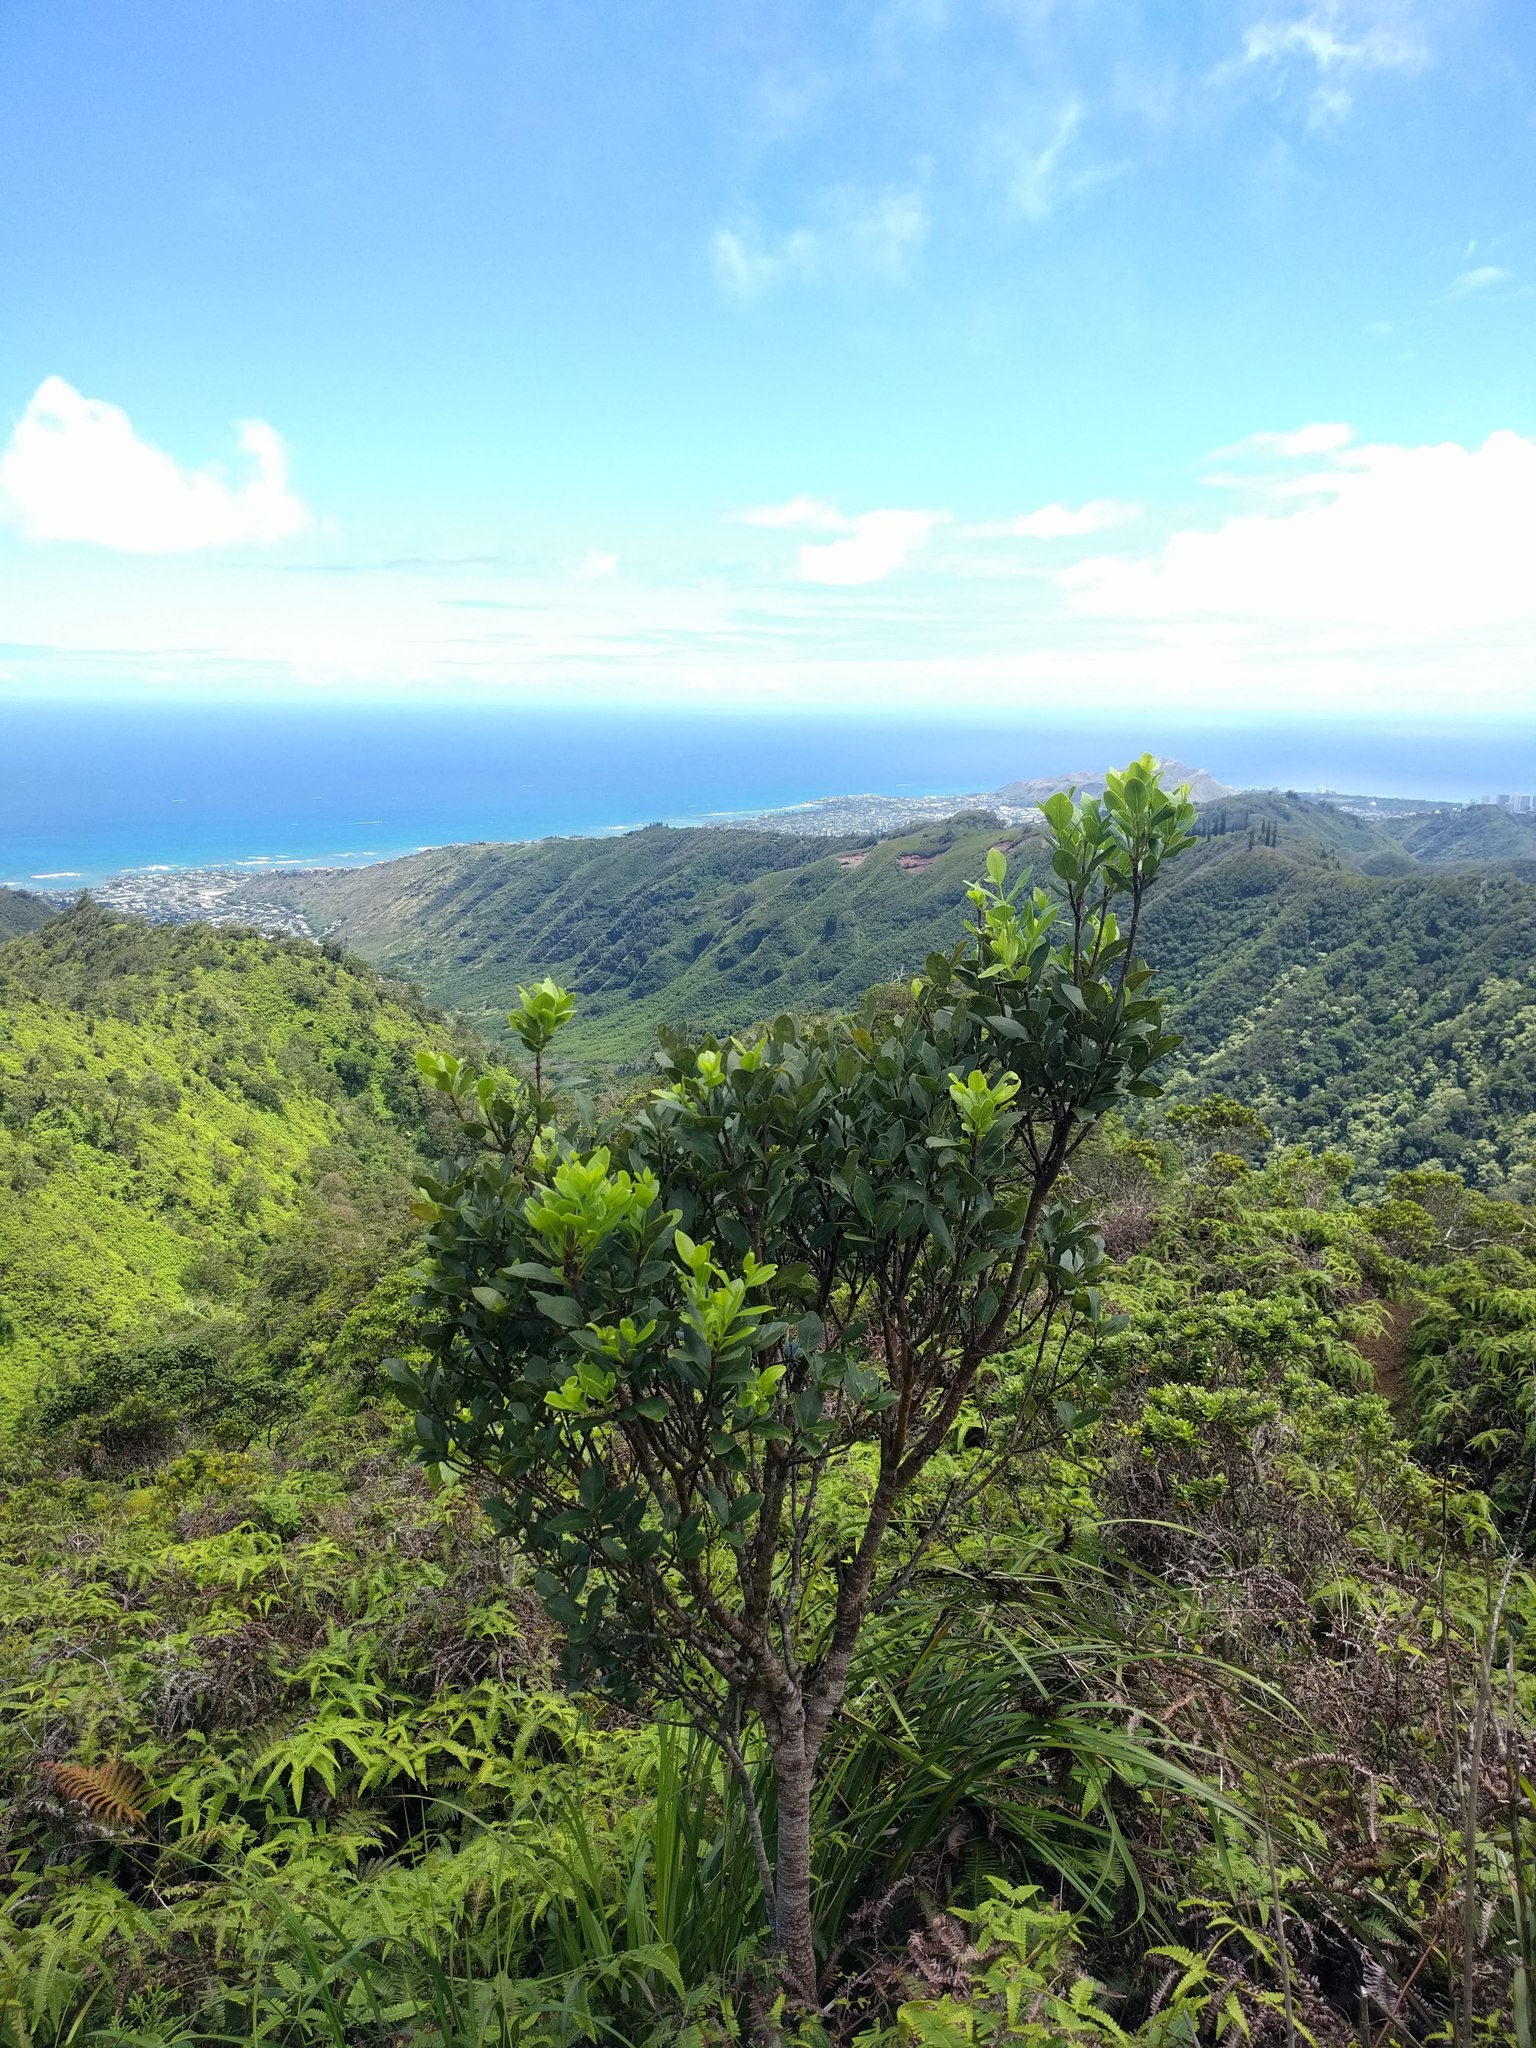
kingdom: Plantae
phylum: Tracheophyta
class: Magnoliopsida
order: Malvales
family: Thymelaeaceae
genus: Wikstroemia
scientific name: Wikstroemia oahuensis
